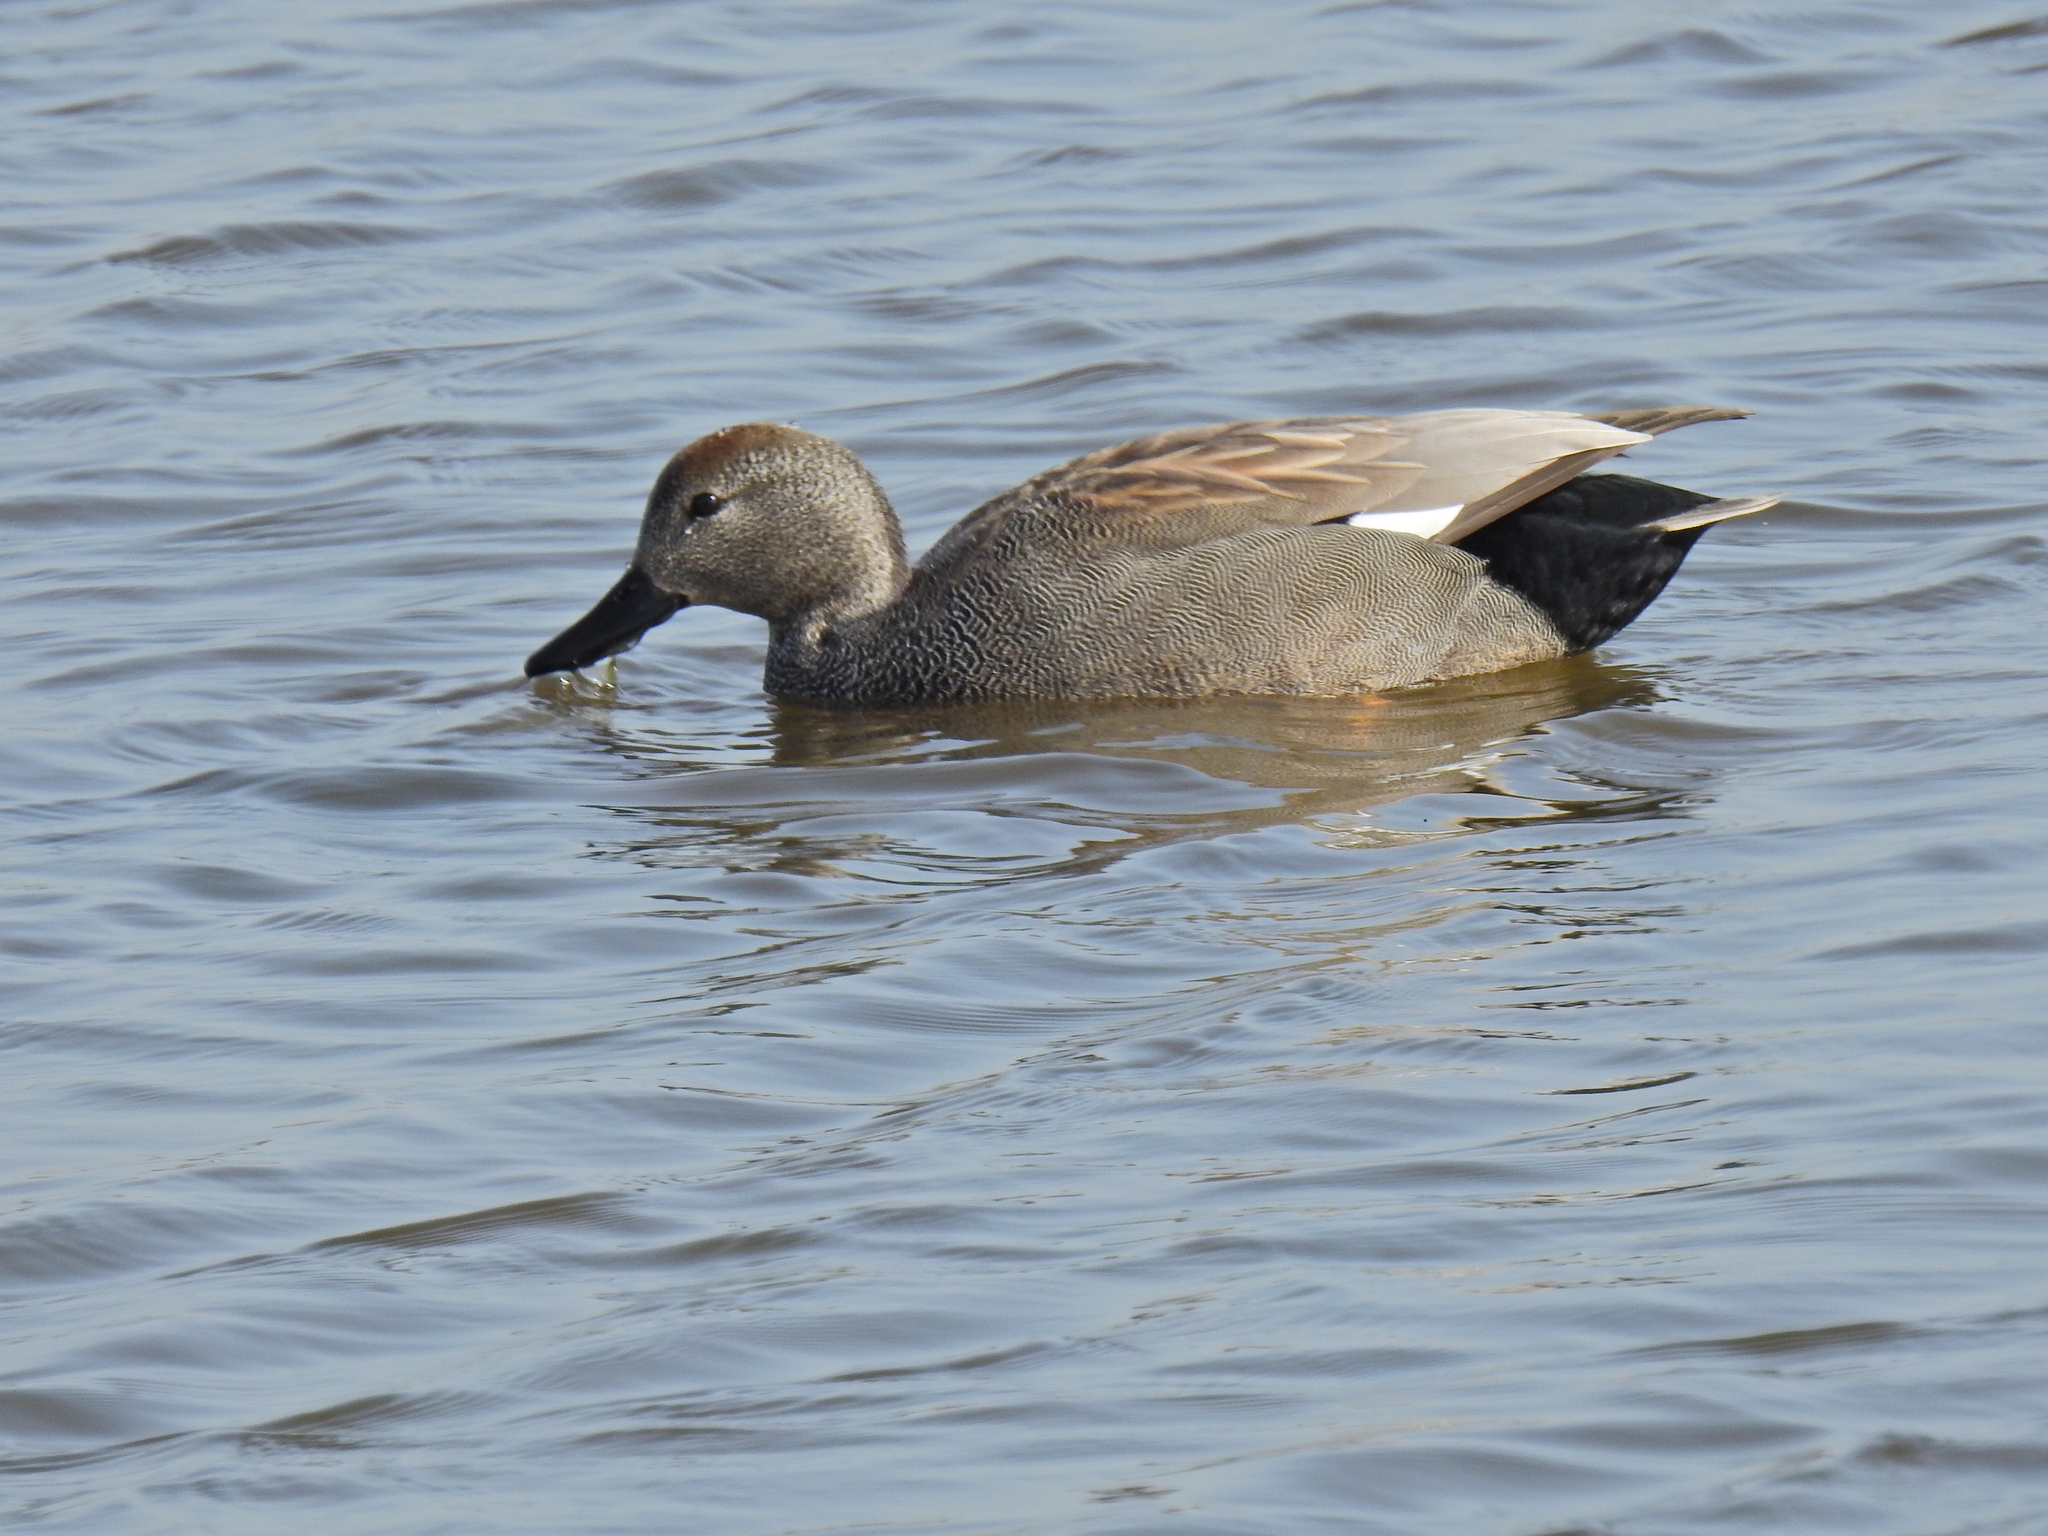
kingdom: Animalia
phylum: Chordata
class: Aves
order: Anseriformes
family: Anatidae
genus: Mareca
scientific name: Mareca strepera
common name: Gadwall
